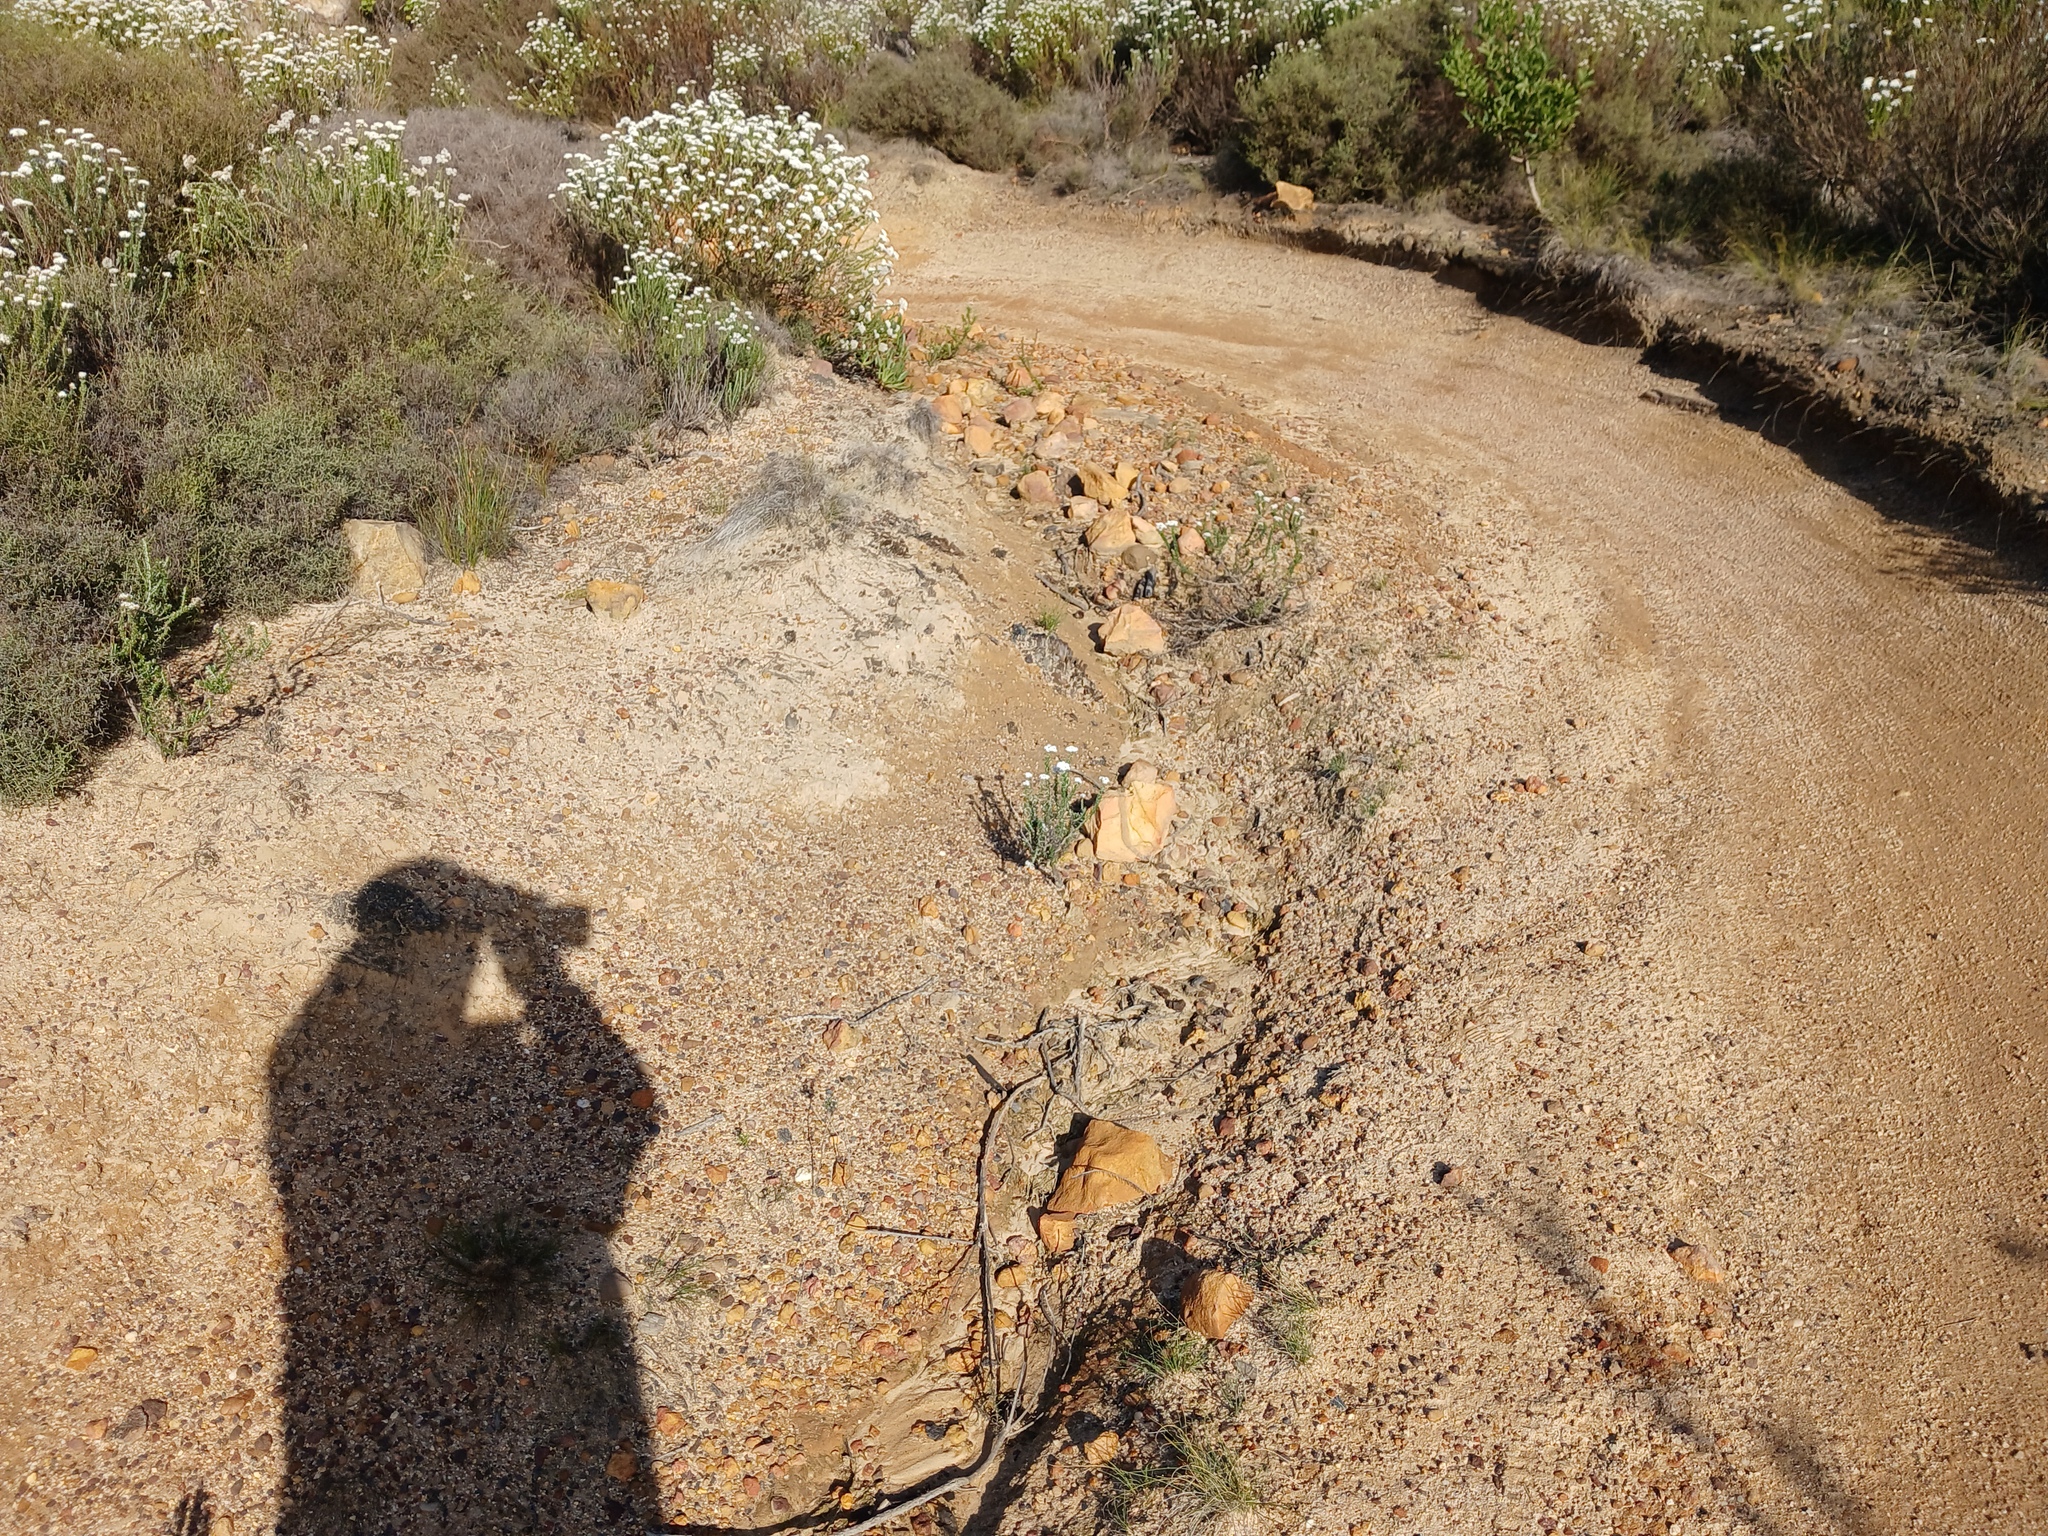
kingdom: Plantae
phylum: Tracheophyta
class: Magnoliopsida
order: Asterales
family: Asteraceae
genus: Metalasia
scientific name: Metalasia densa
